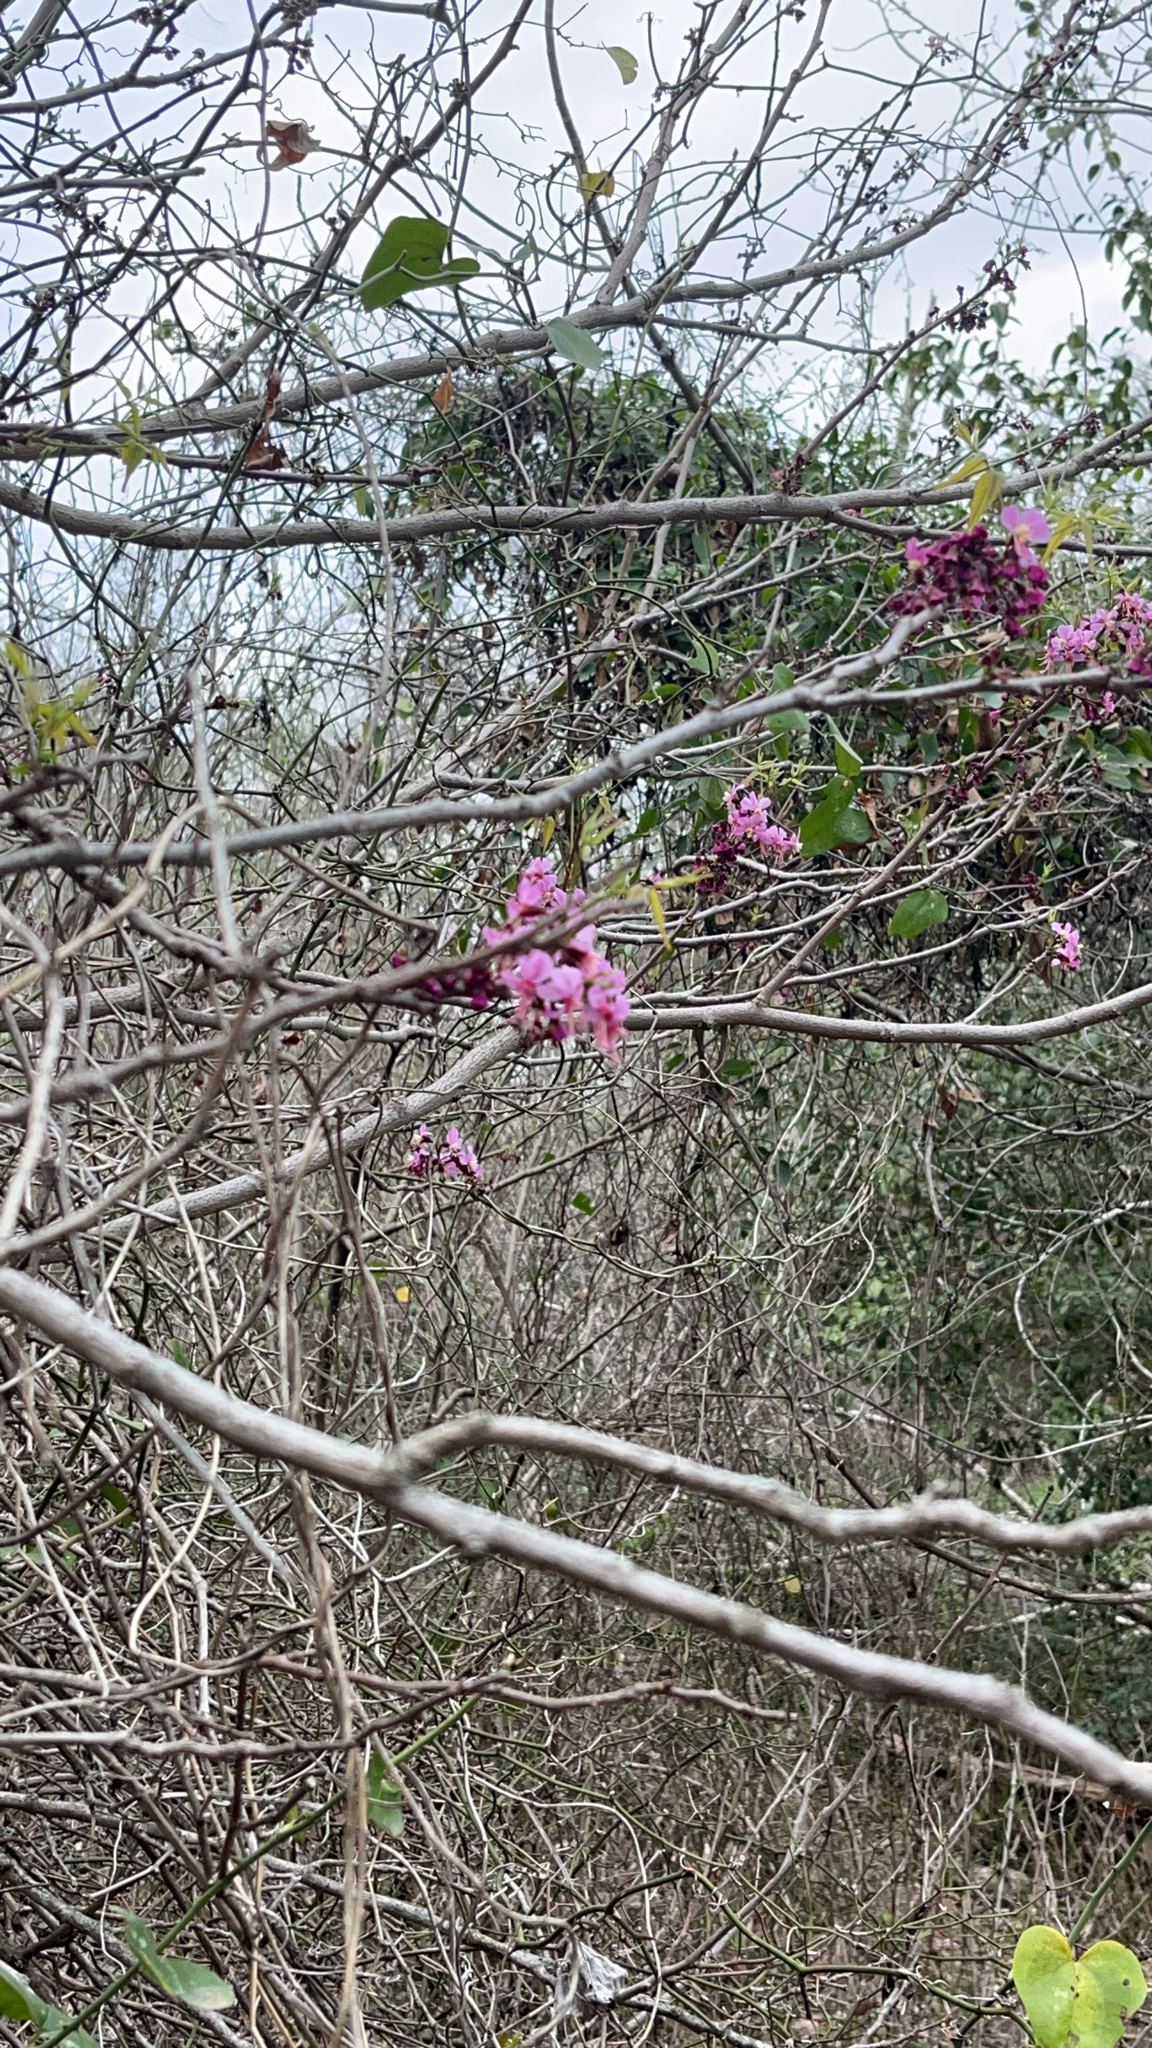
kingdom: Plantae
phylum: Tracheophyta
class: Magnoliopsida
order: Sapindales
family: Sapindaceae
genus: Ungnadia
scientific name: Ungnadia speciosa
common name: Texas-buckeye
